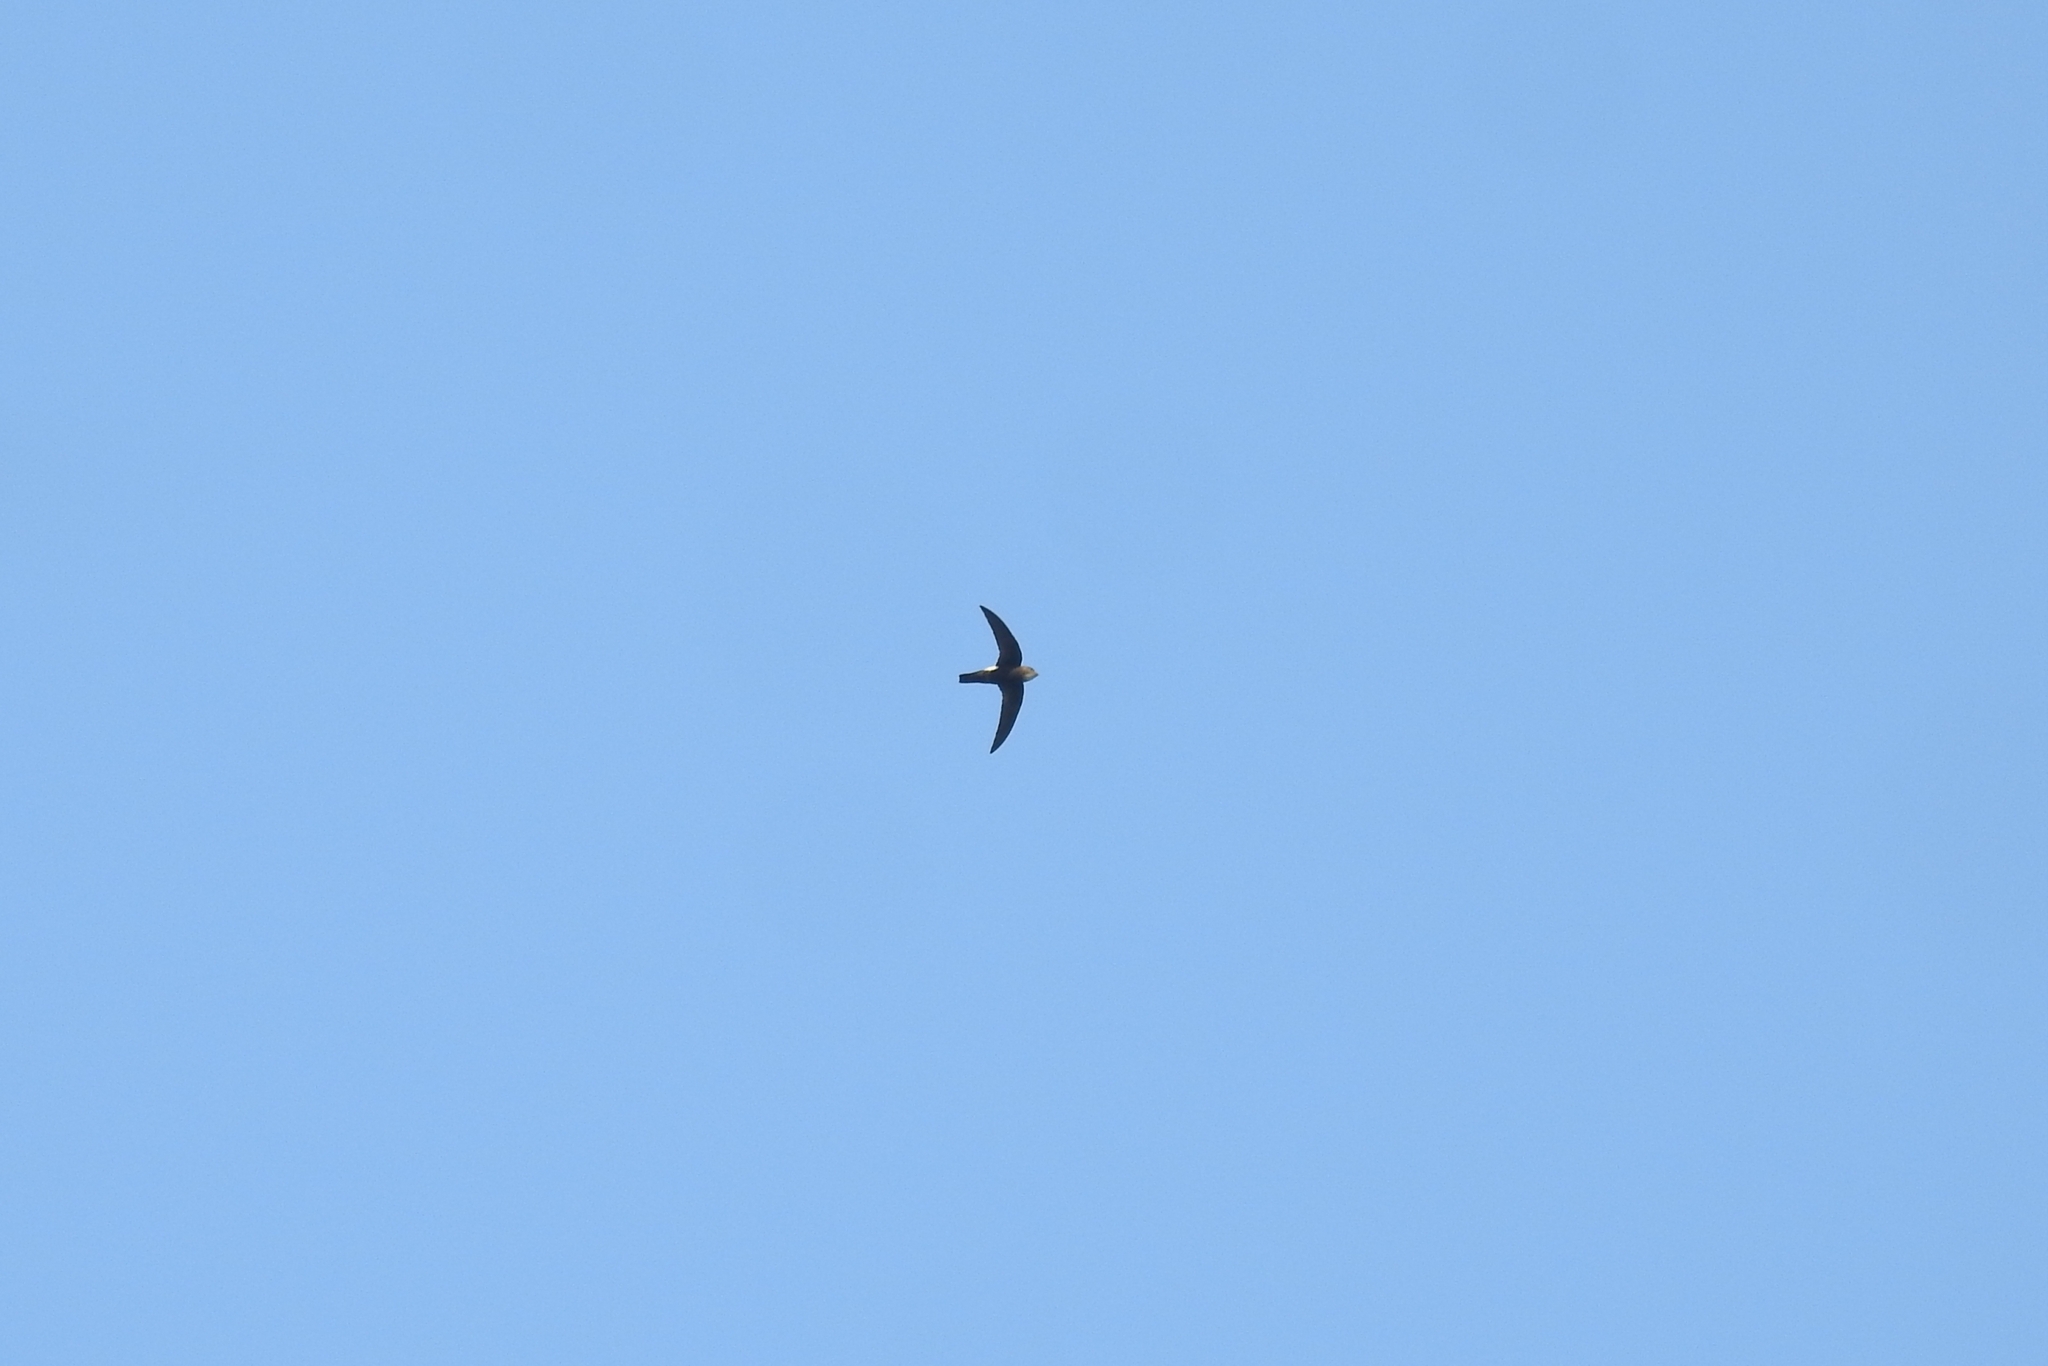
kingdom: Animalia
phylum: Chordata
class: Aves
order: Apodiformes
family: Apodidae
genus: Apus
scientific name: Apus affinis
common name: Little swift
